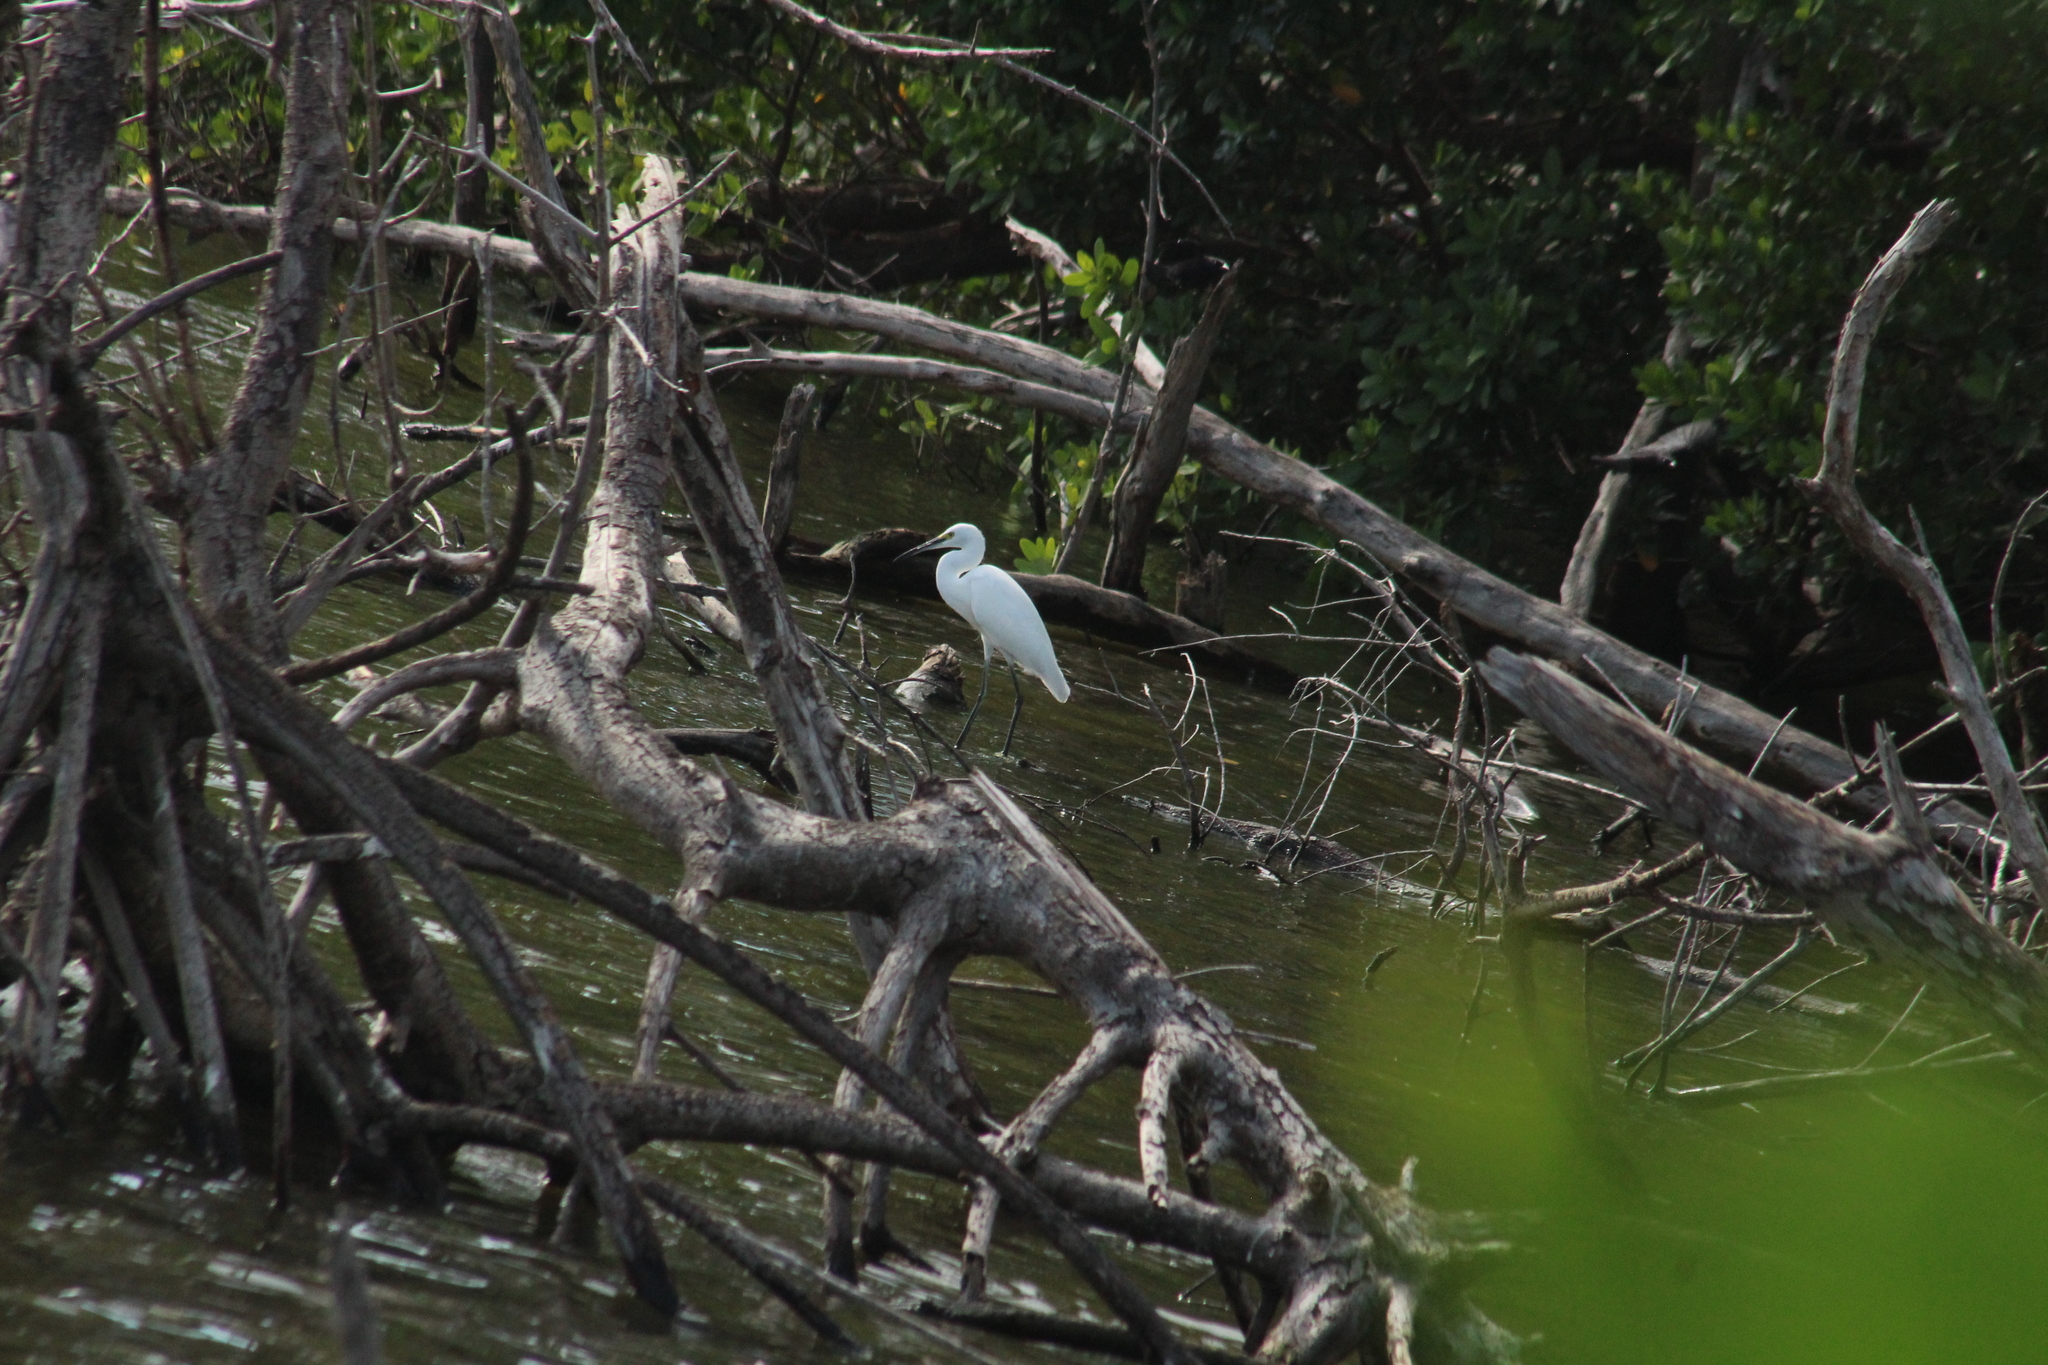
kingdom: Animalia
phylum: Chordata
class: Aves
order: Pelecaniformes
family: Ardeidae
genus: Egretta
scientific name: Egretta thula
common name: Snowy egret
